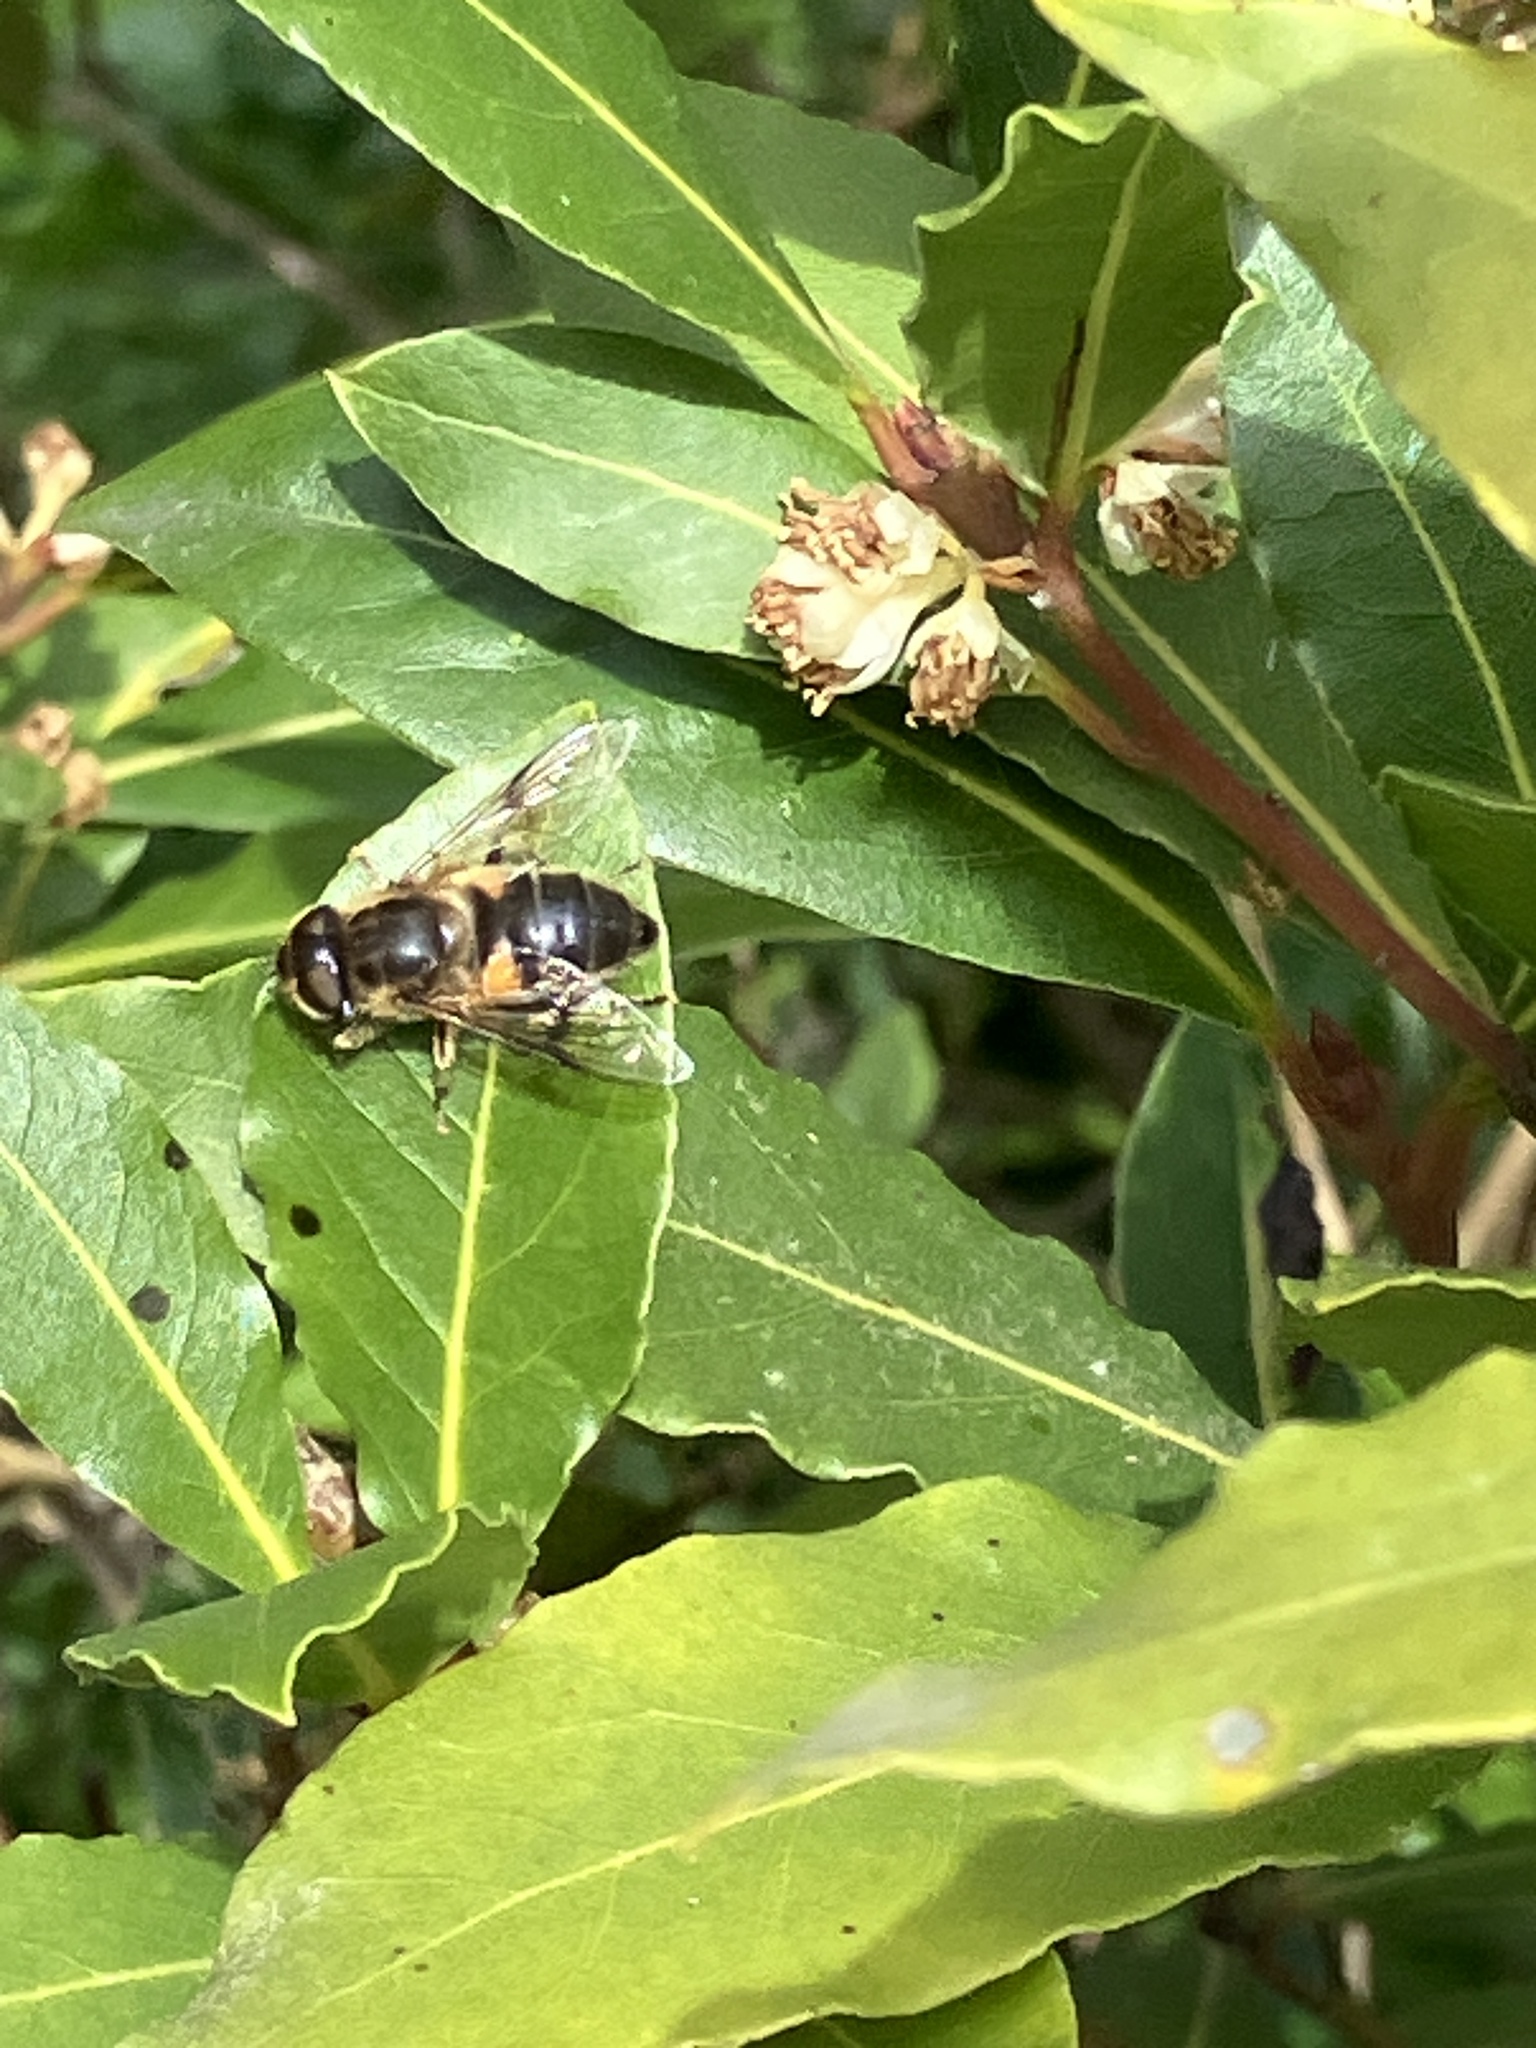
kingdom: Animalia
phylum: Arthropoda
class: Insecta
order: Diptera
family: Syrphidae
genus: Eristalis
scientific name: Eristalis pertinax
